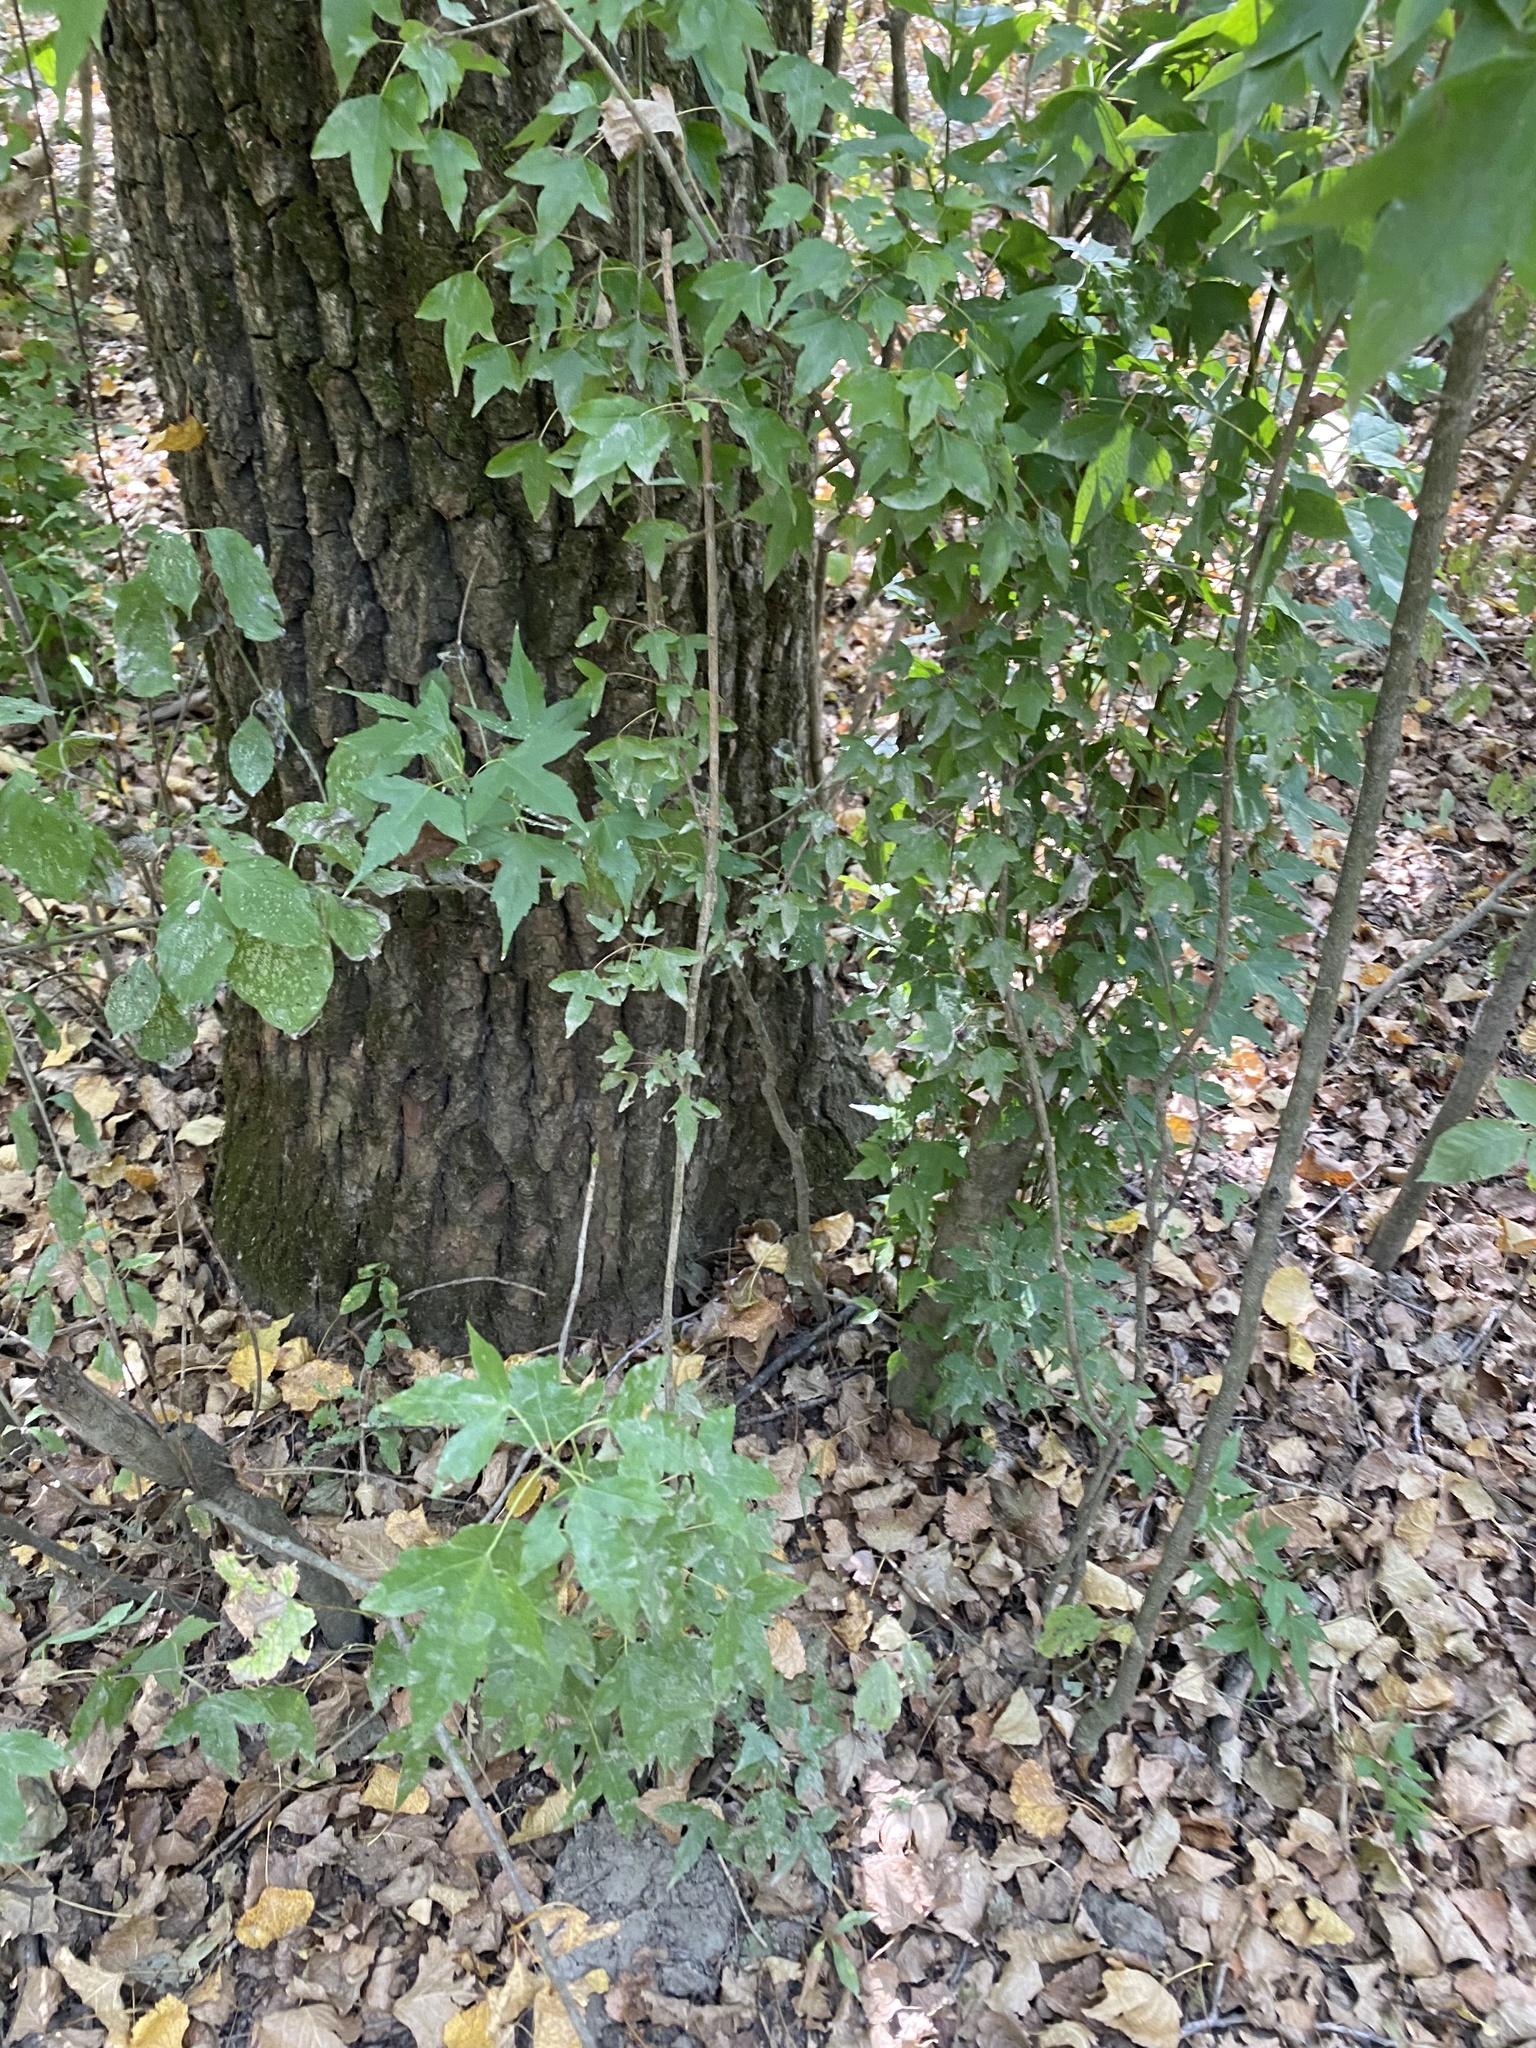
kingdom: Plantae
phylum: Tracheophyta
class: Magnoliopsida
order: Sapindales
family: Sapindaceae
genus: Acer
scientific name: Acer buergerianum
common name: Trident maple
